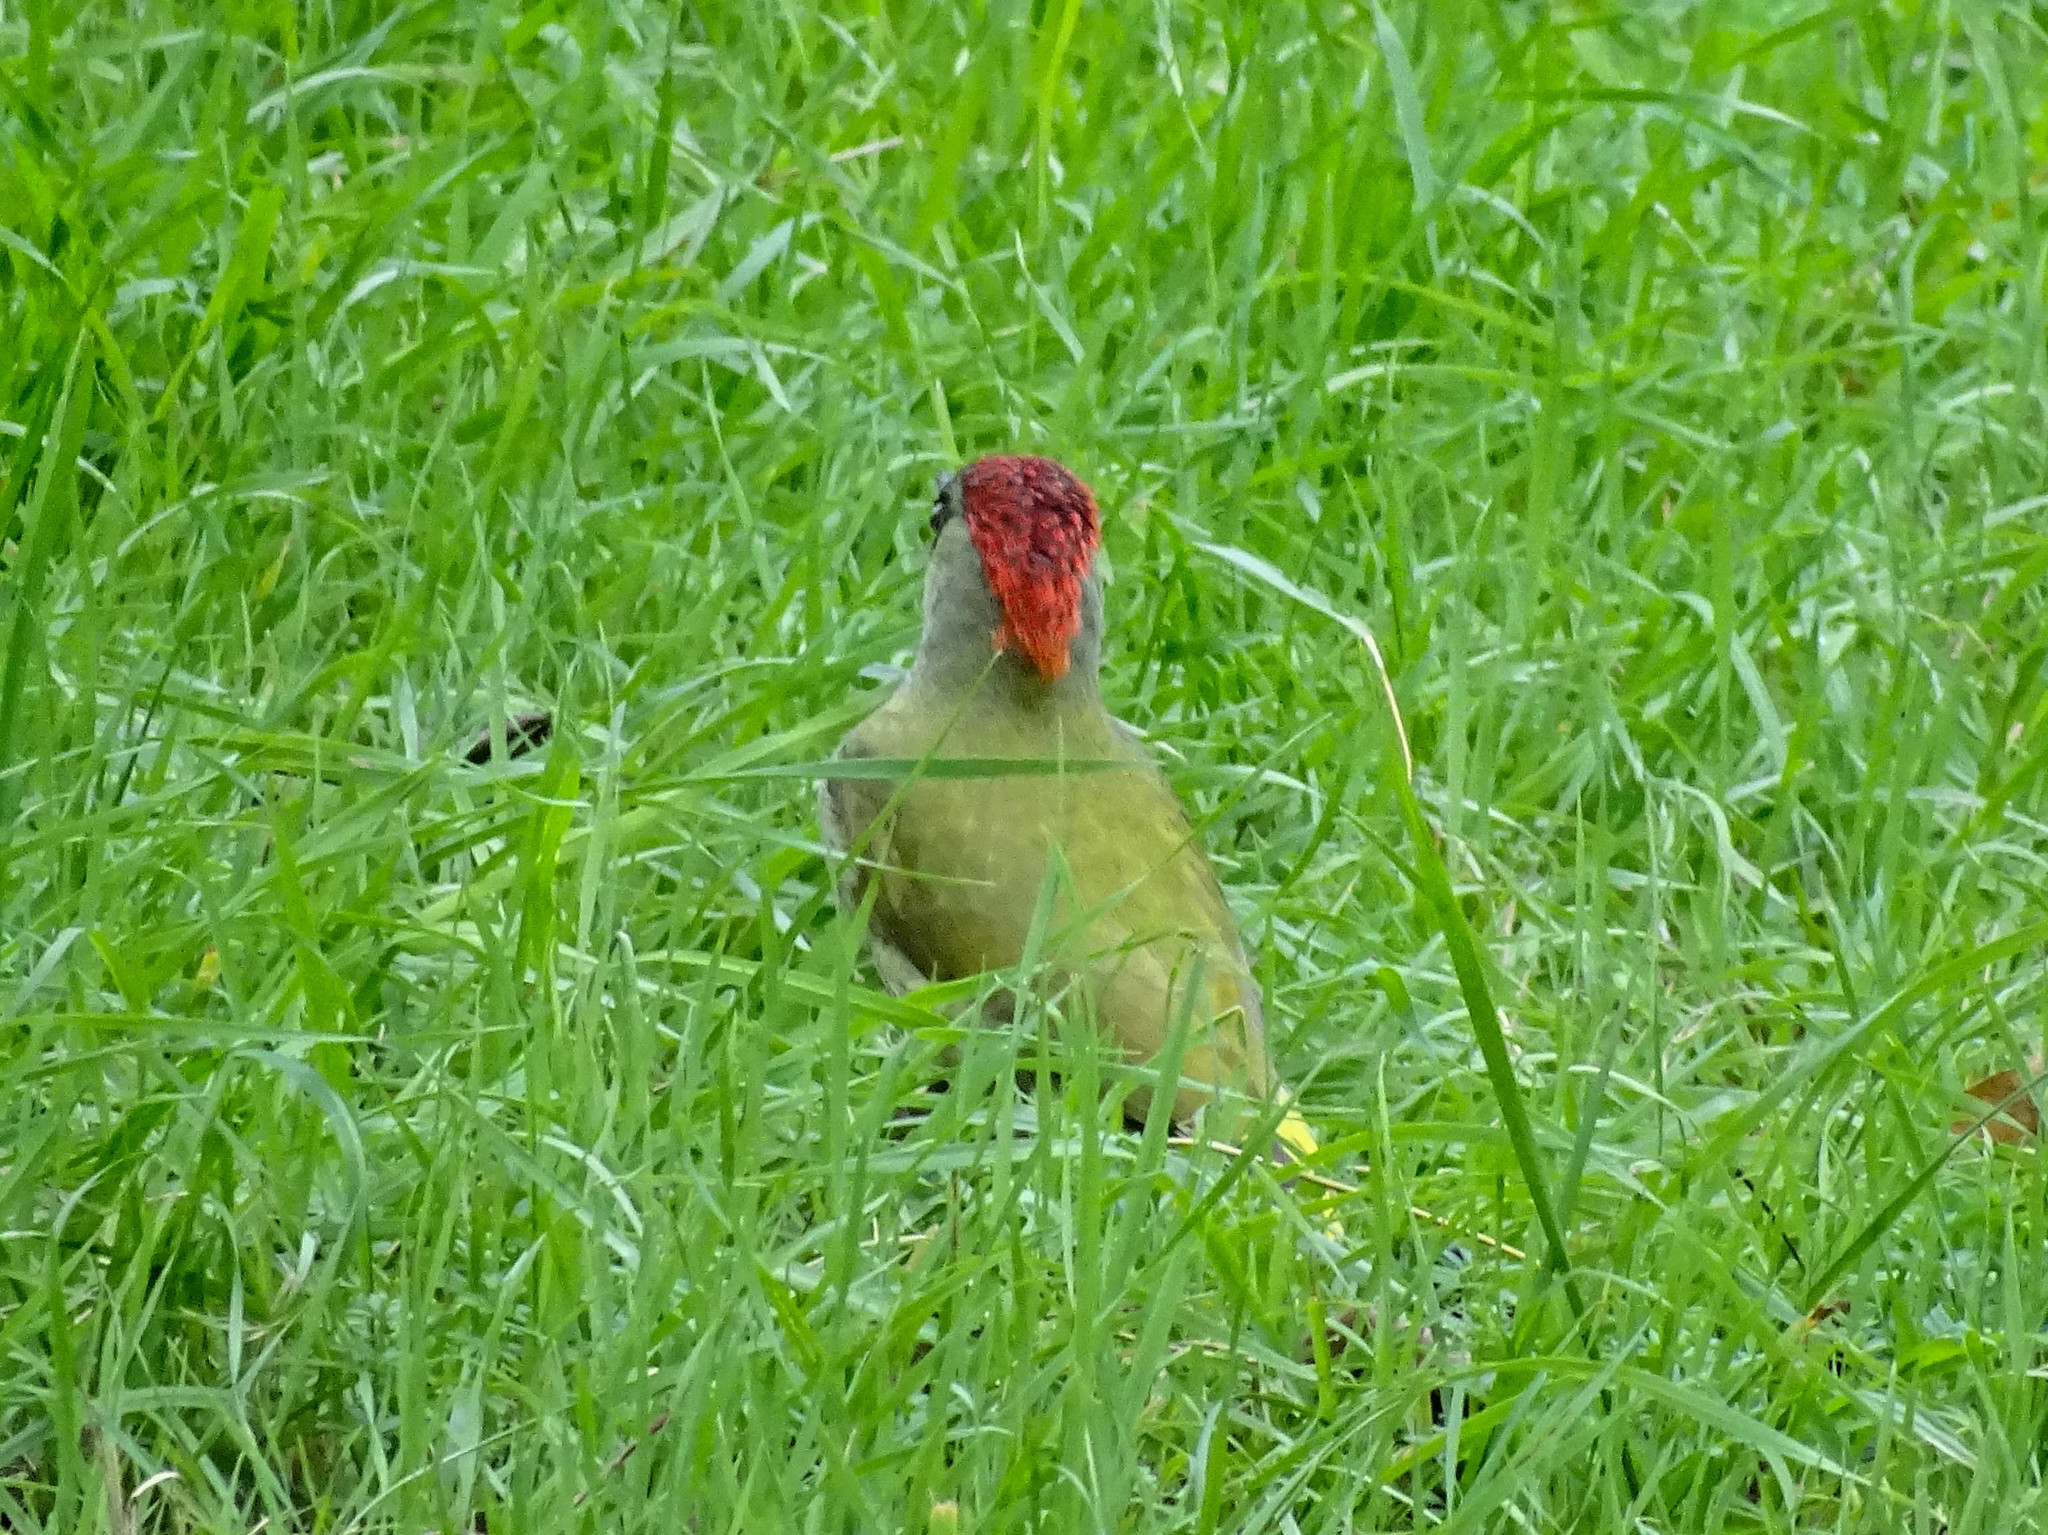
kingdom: Animalia
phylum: Chordata
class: Aves
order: Piciformes
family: Picidae
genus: Picus
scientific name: Picus viridis
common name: European green woodpecker
